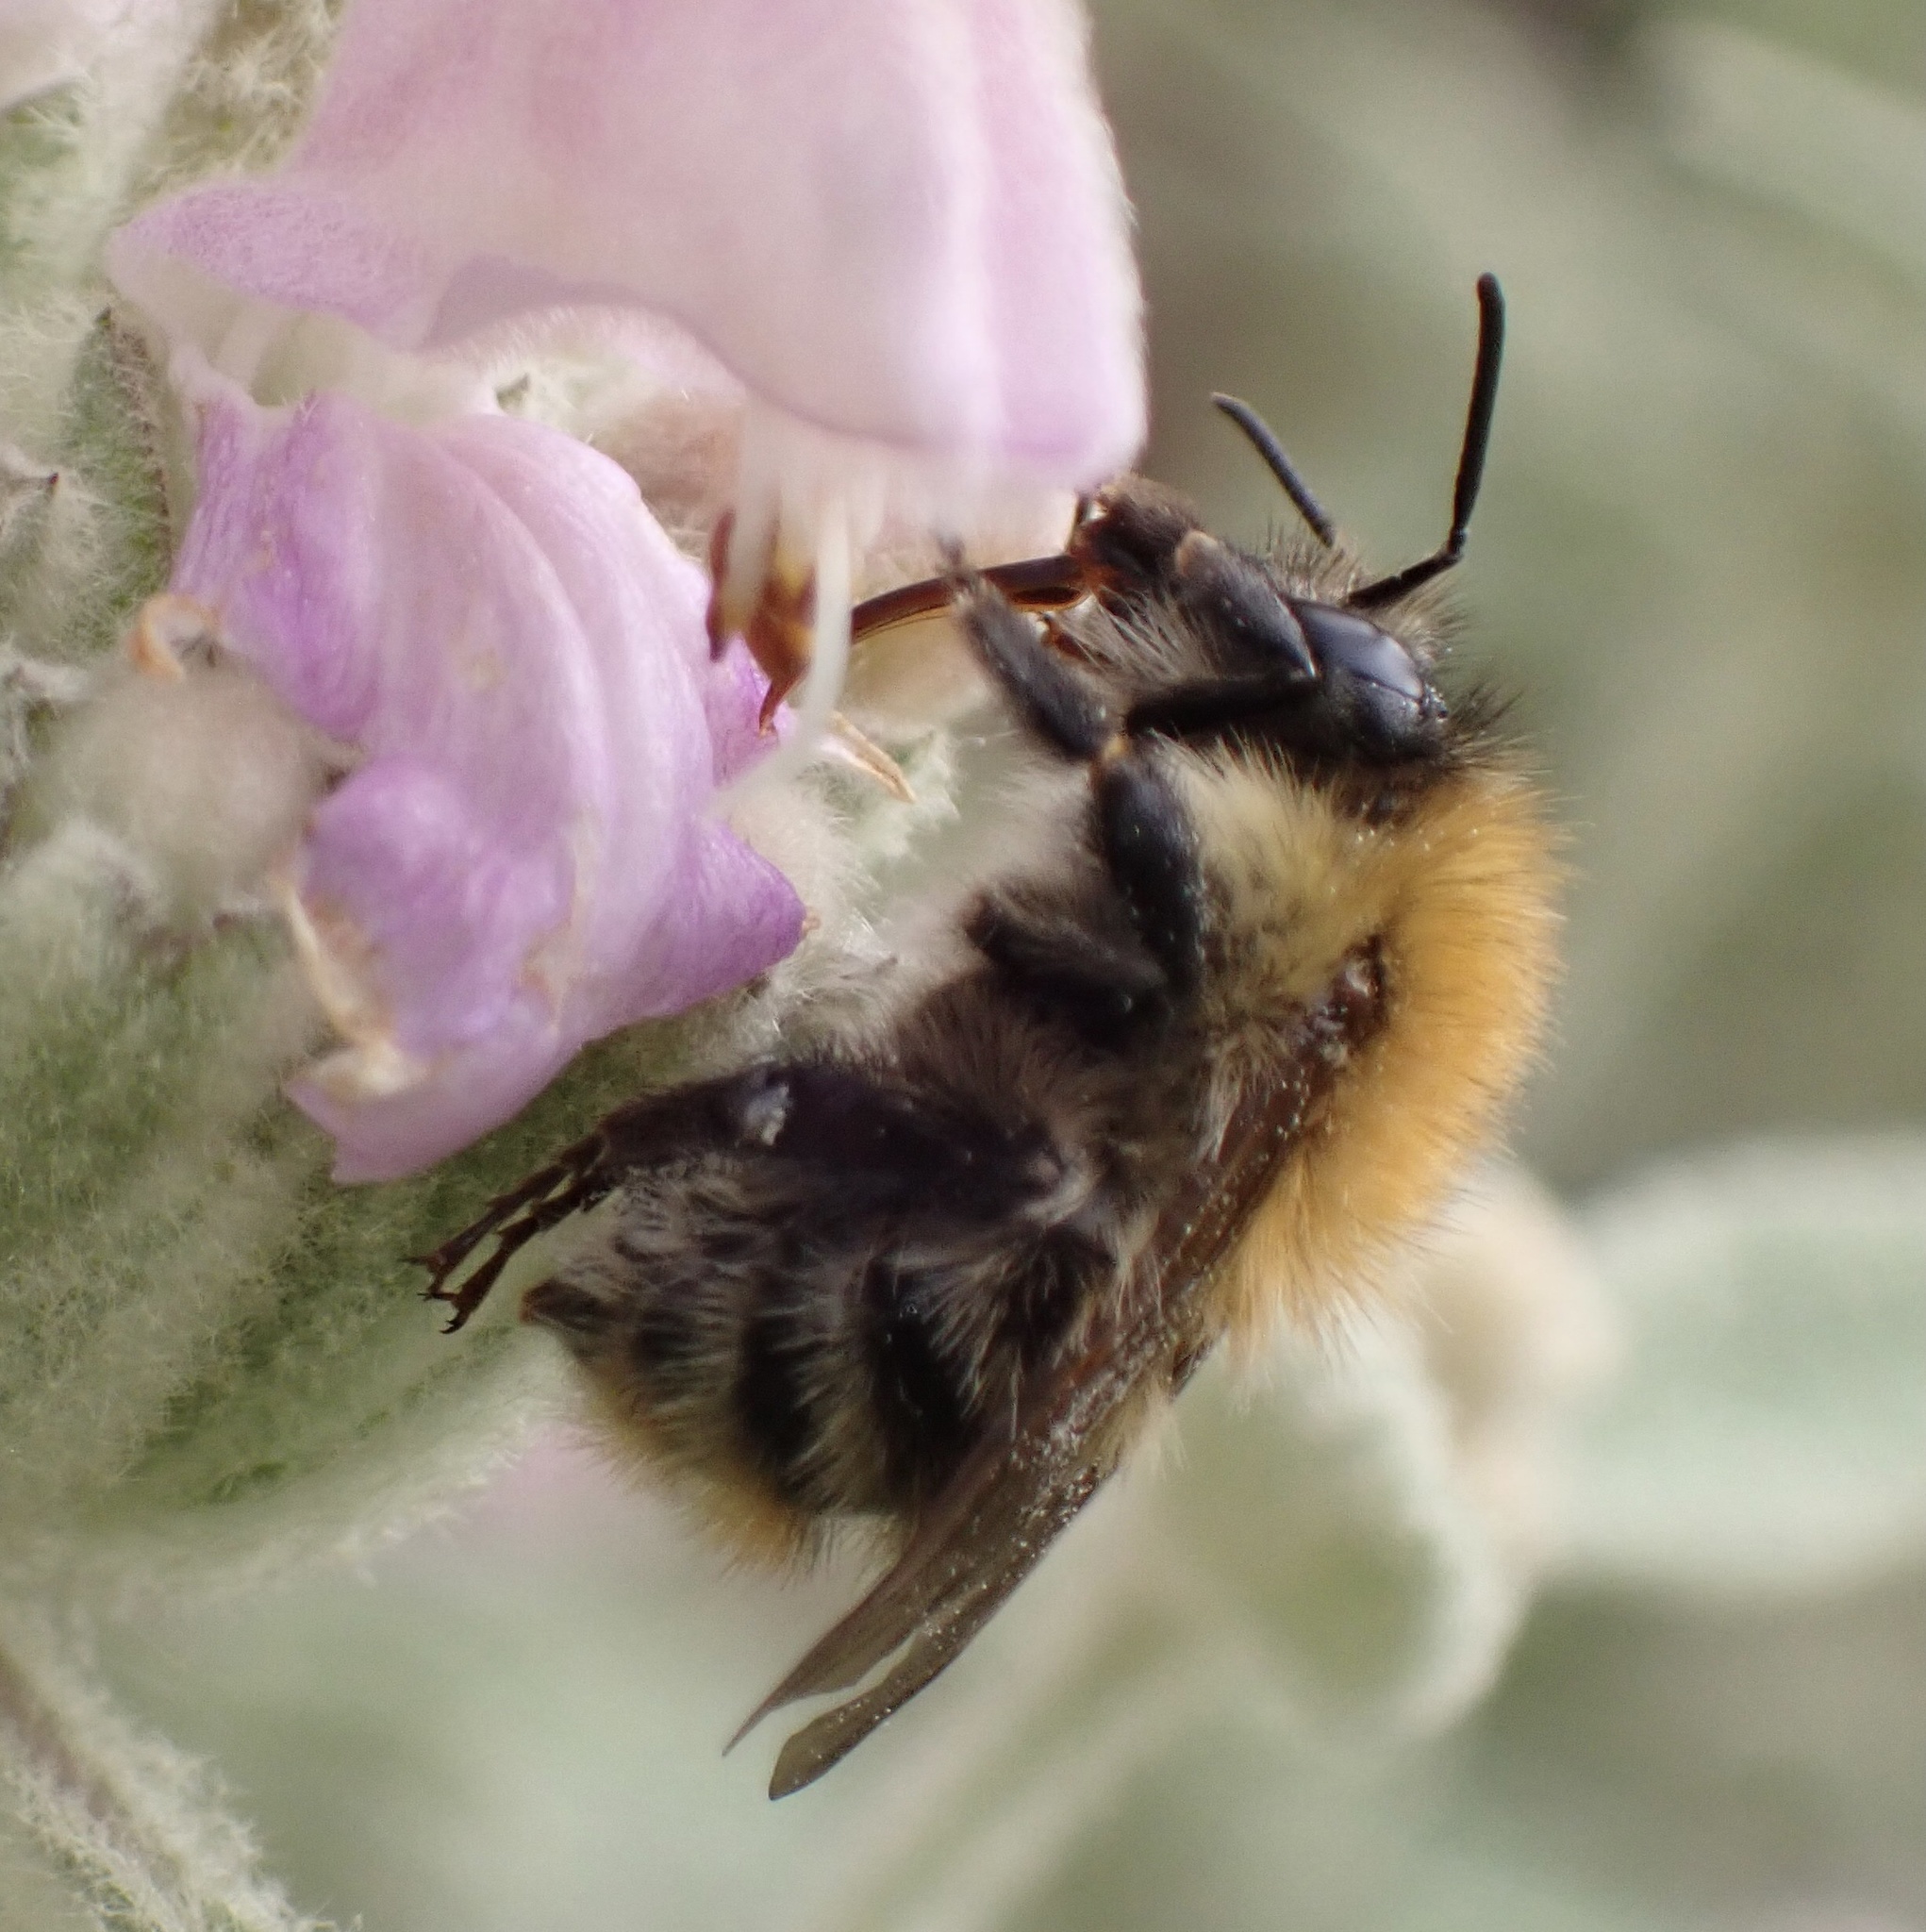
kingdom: Animalia
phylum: Arthropoda
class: Insecta
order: Hymenoptera
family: Apidae
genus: Bombus
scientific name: Bombus pascuorum
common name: Common carder bee
